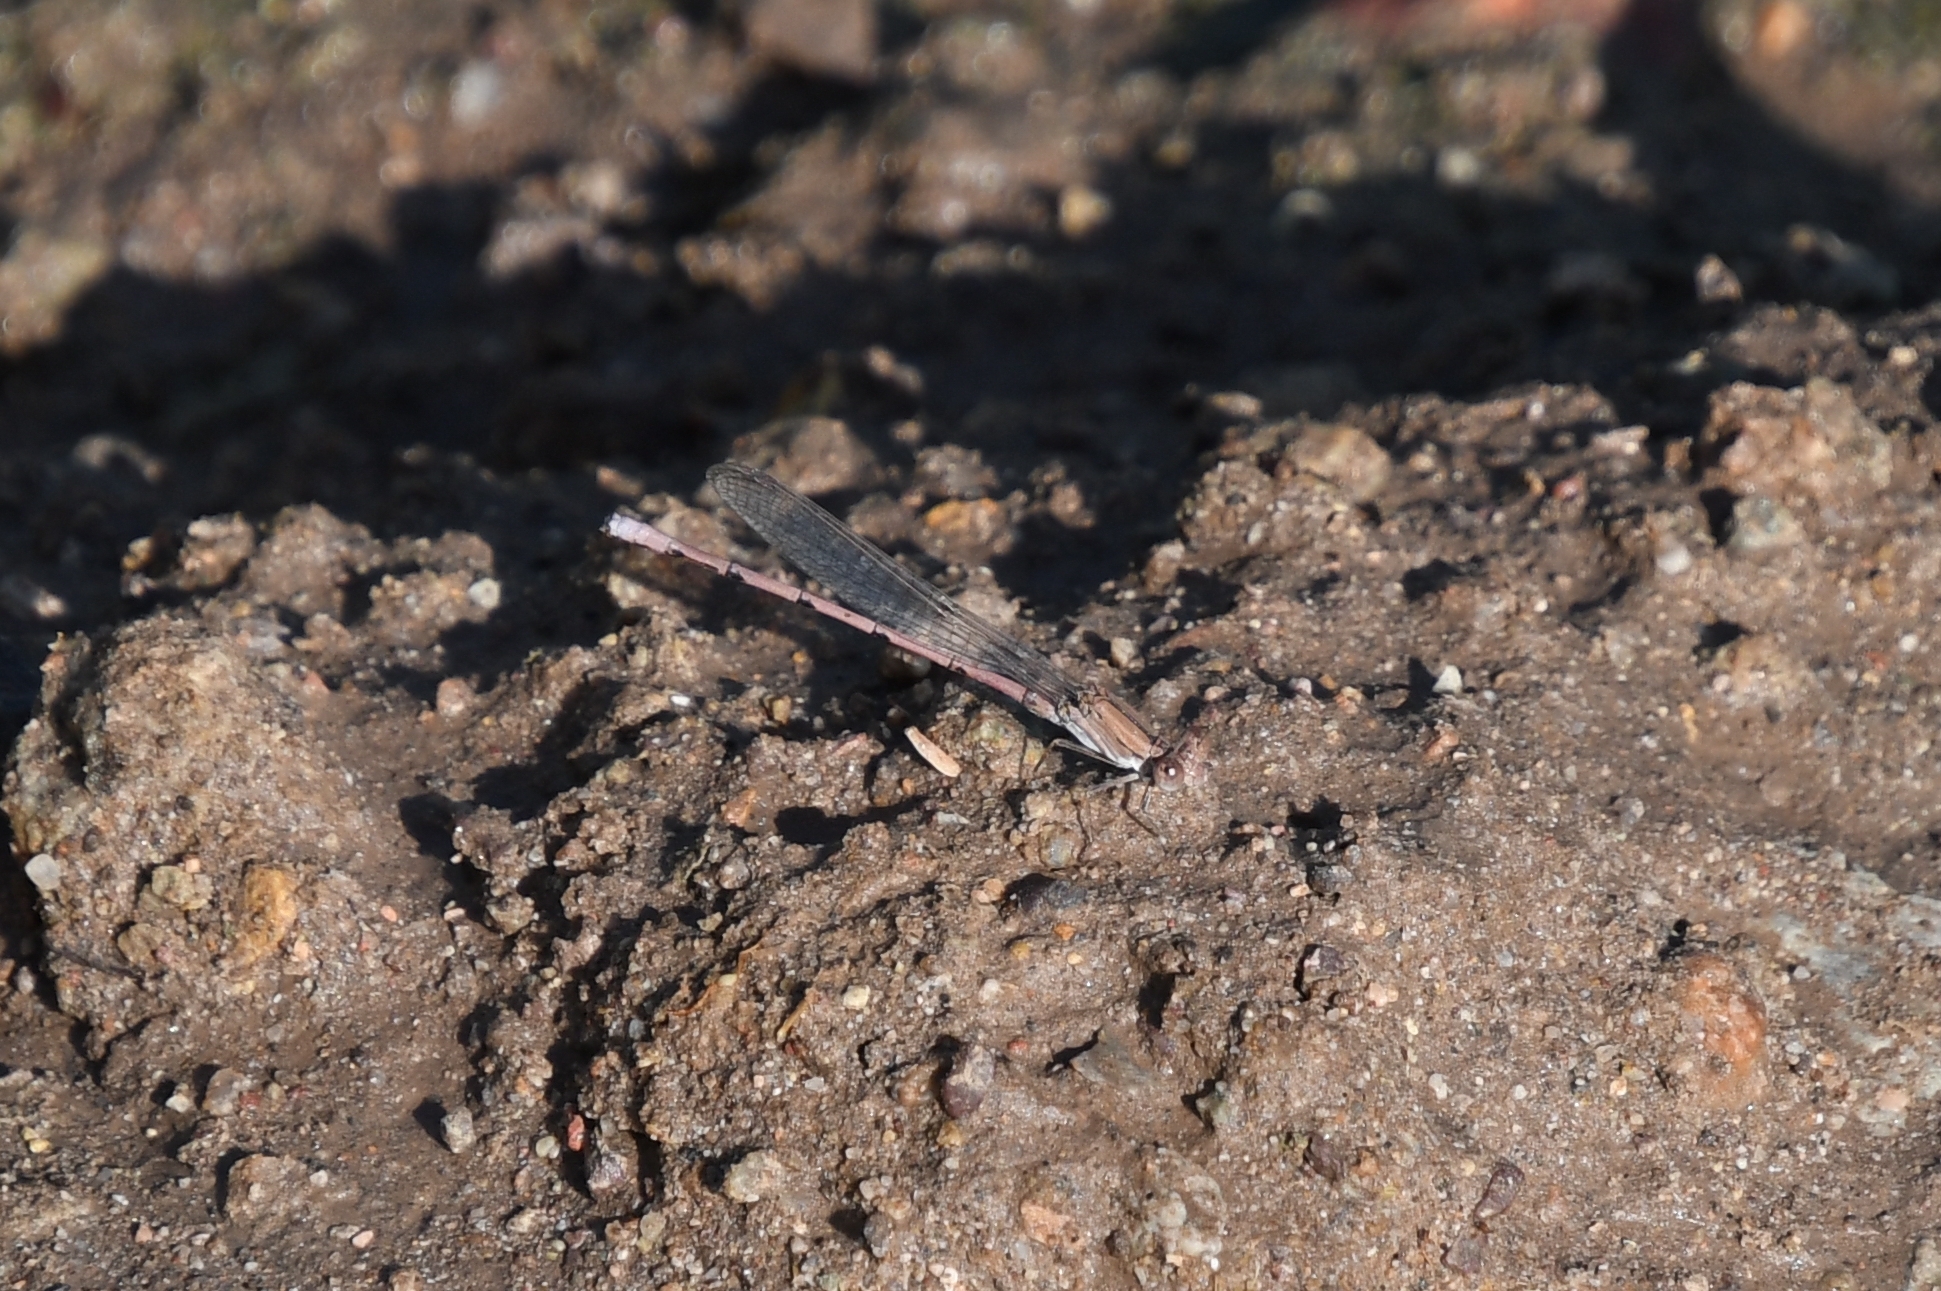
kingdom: Animalia
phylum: Arthropoda
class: Insecta
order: Odonata
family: Coenagrionidae
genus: Argia
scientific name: Argia pallens
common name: Amethyst dancer
